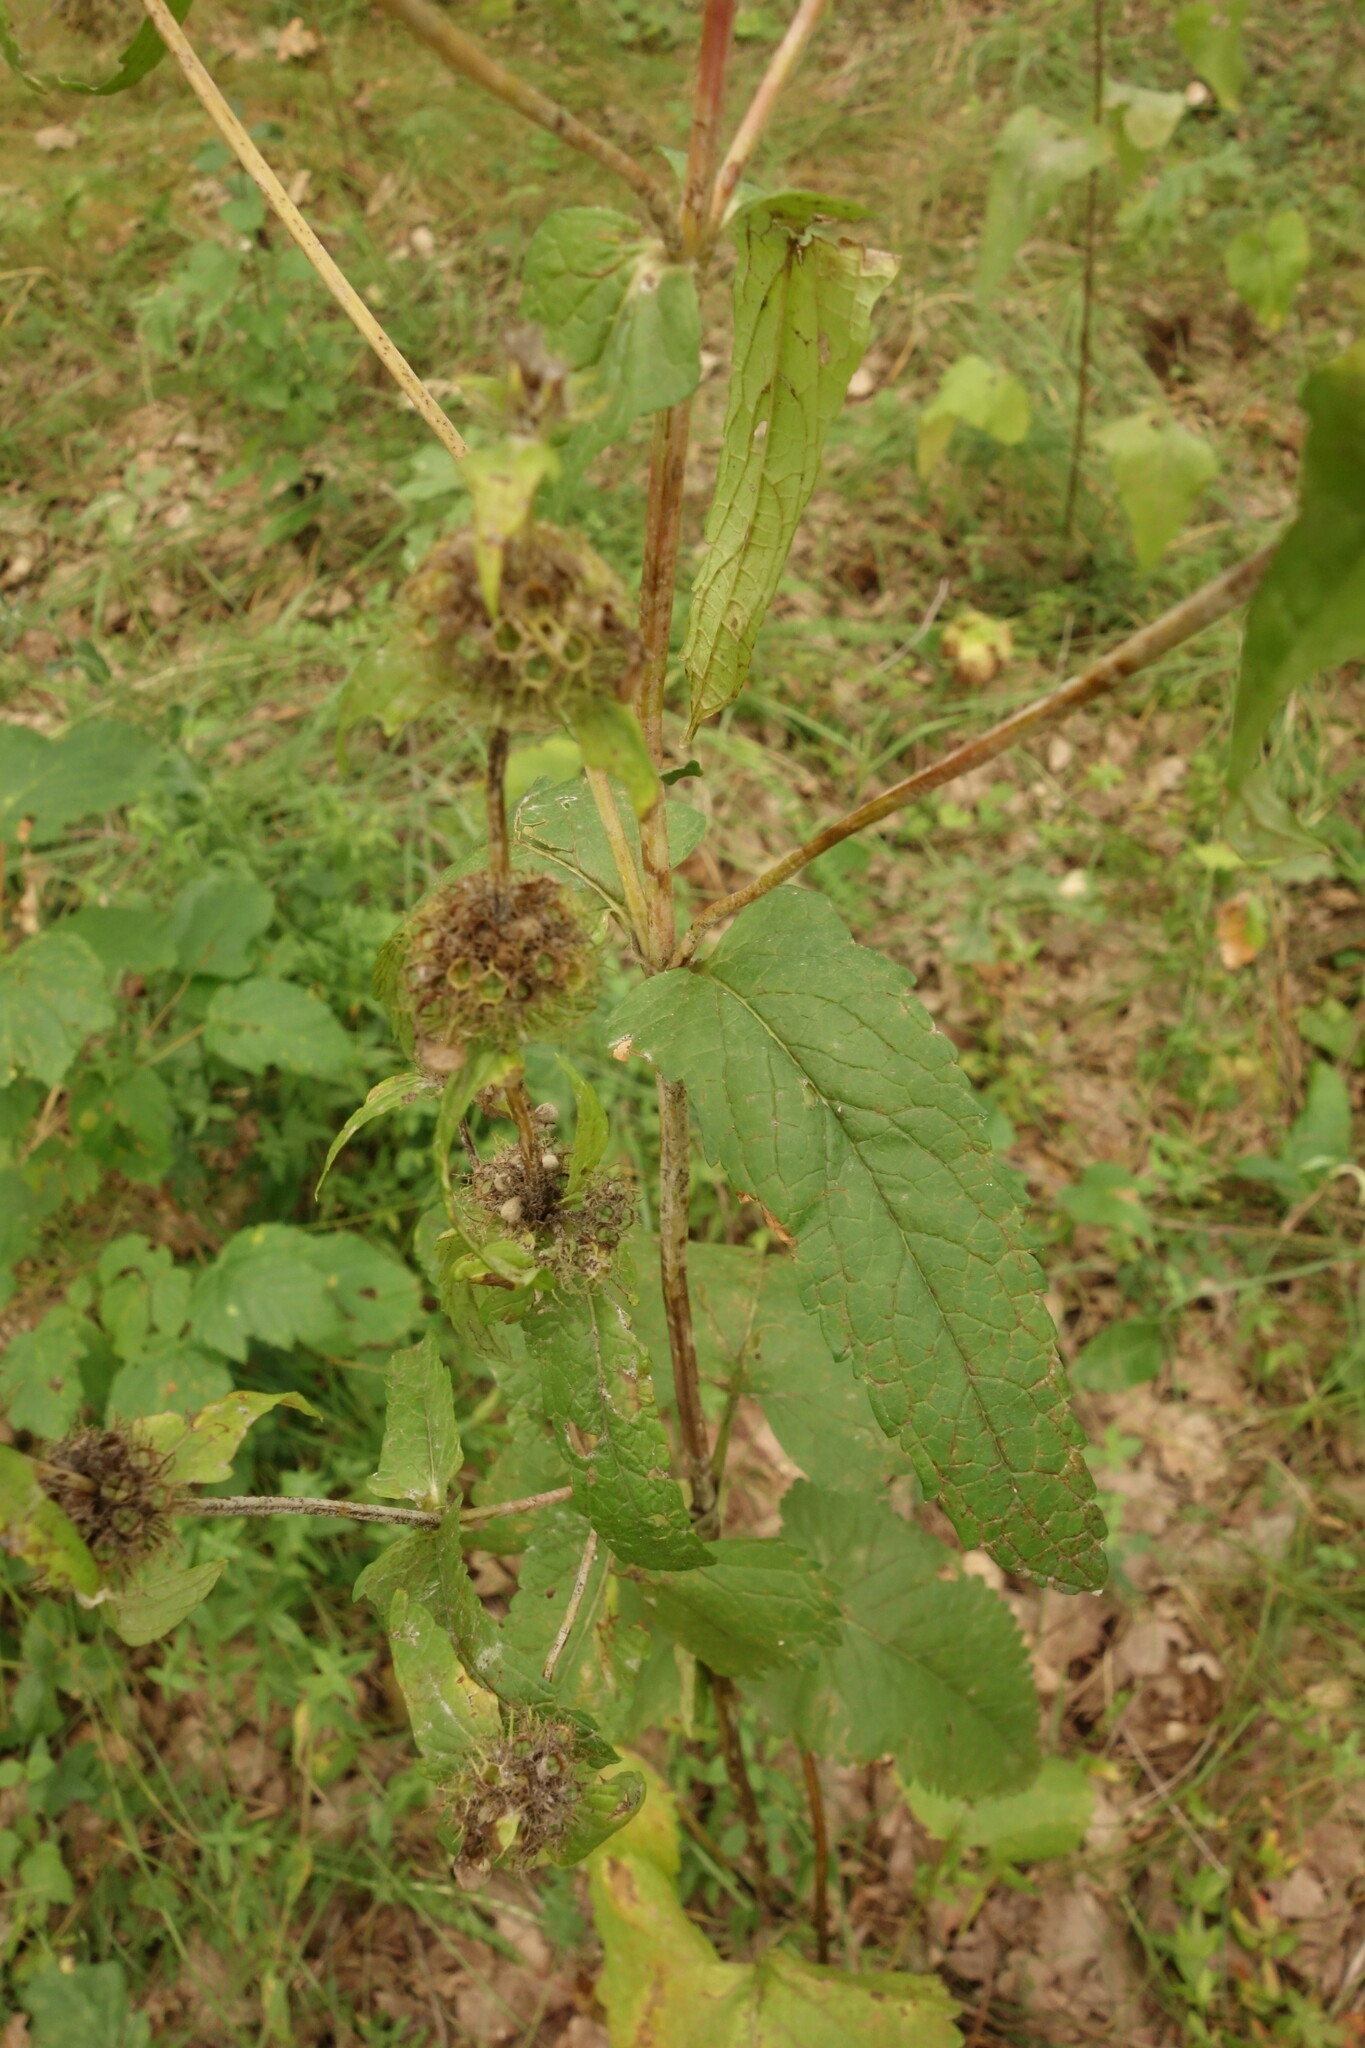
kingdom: Plantae
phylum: Tracheophyta
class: Magnoliopsida
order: Lamiales
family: Lamiaceae
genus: Phlomoides
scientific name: Phlomoides tuberosa
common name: Tuberous jerusalem sage
